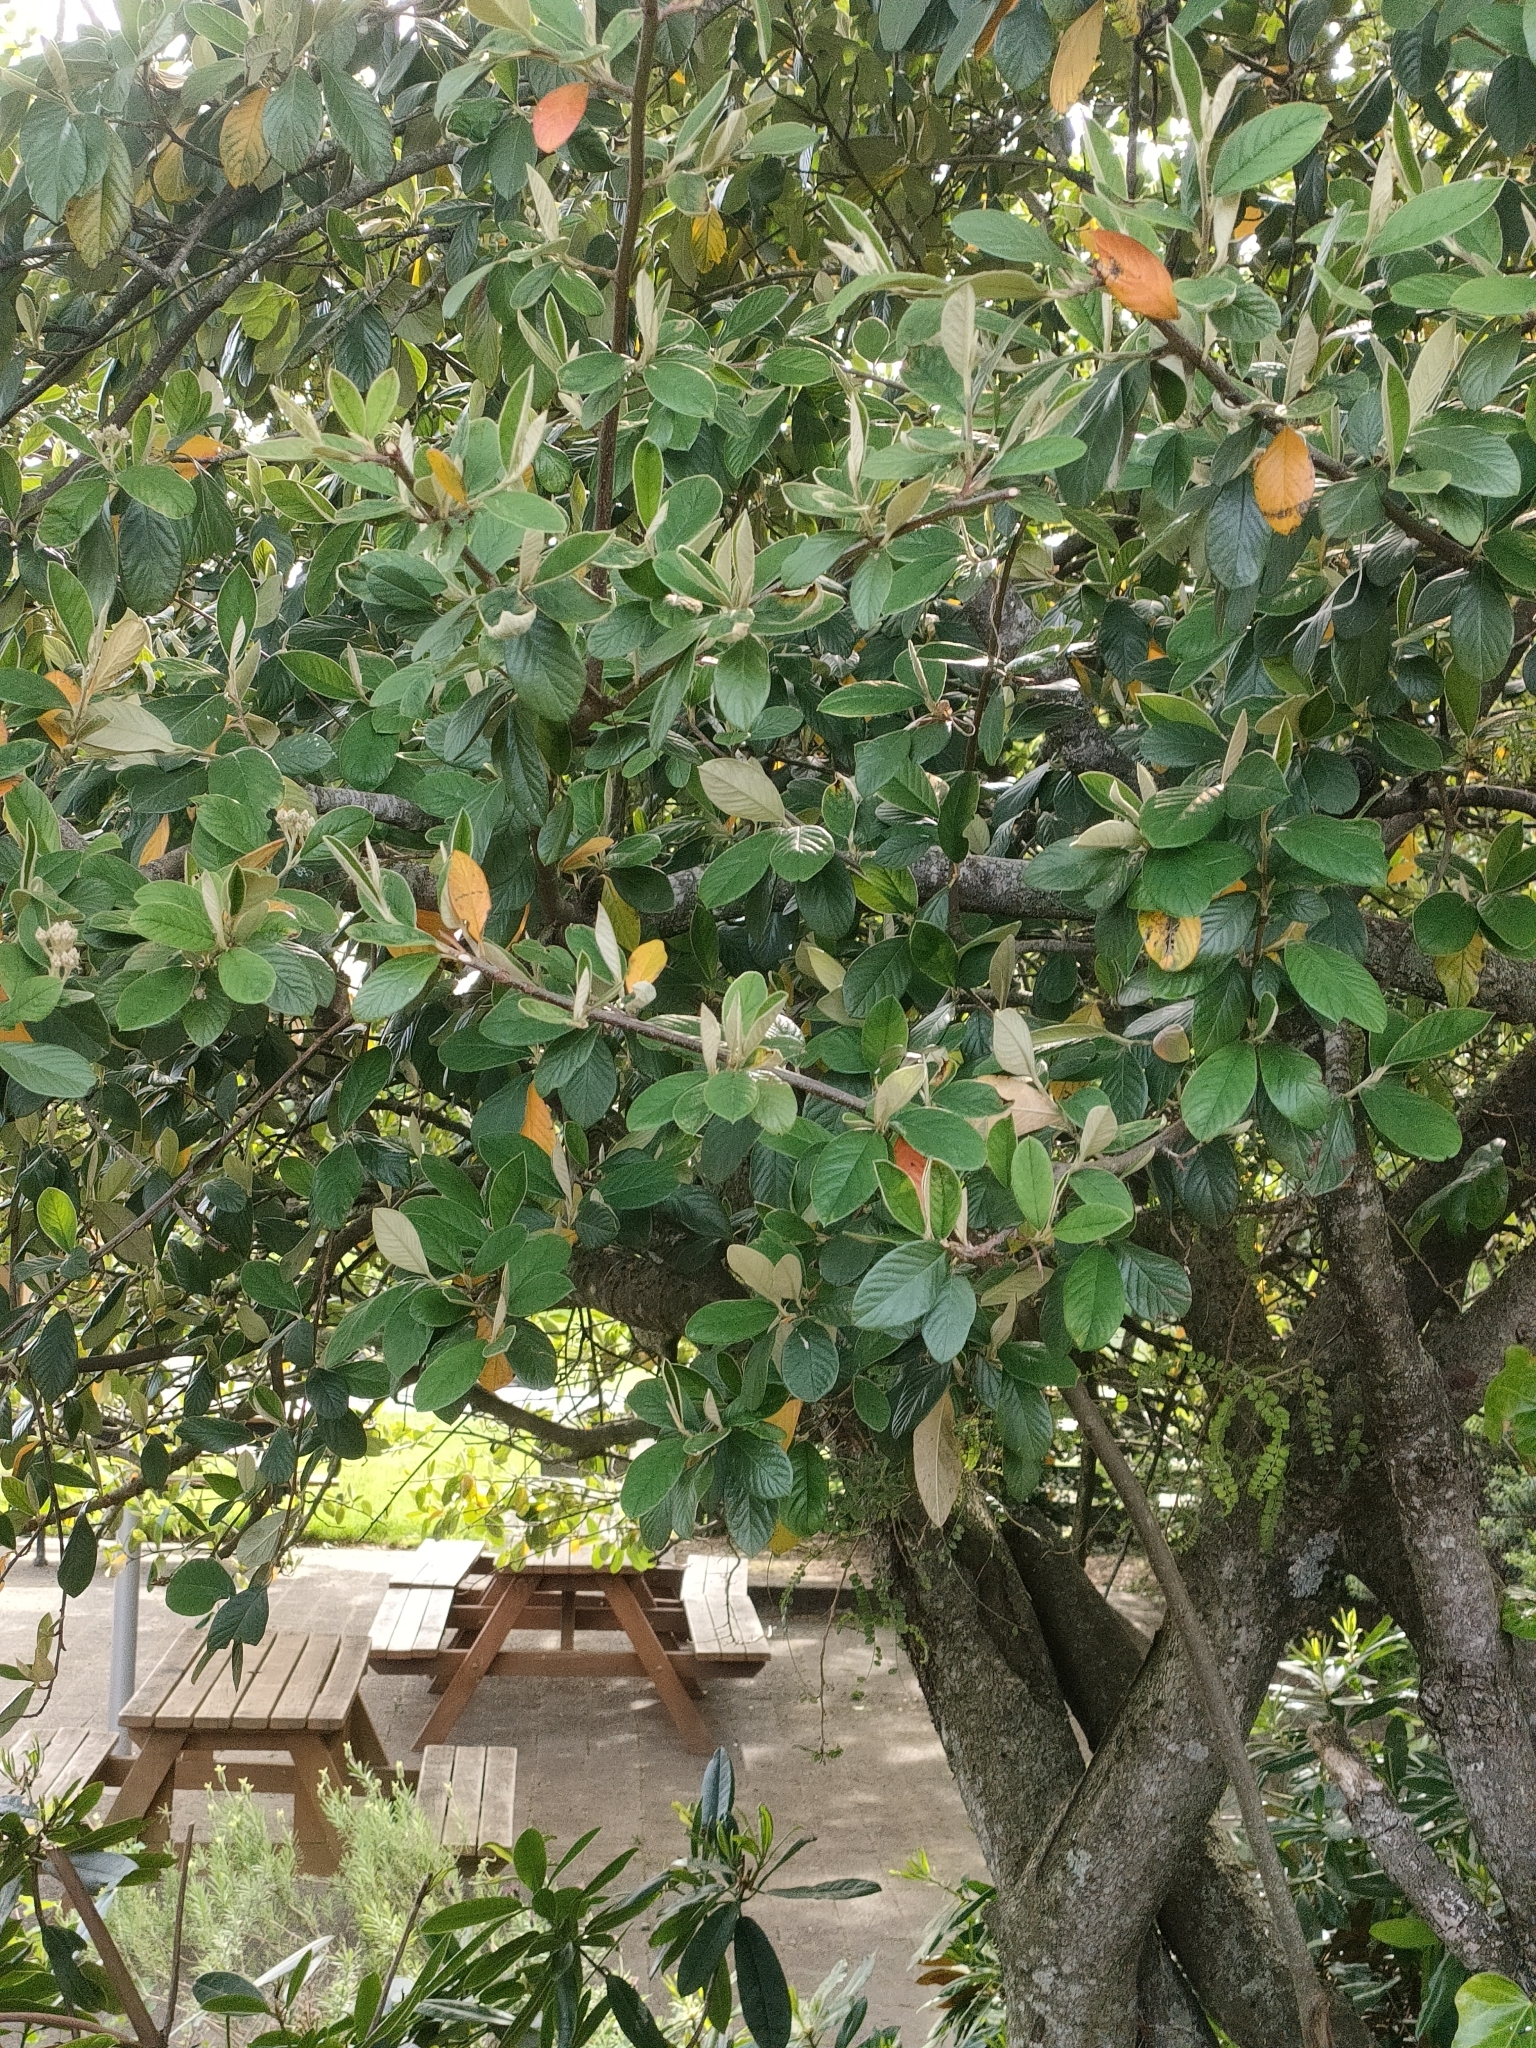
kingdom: Plantae
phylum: Tracheophyta
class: Magnoliopsida
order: Rosales
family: Rosaceae
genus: Cotoneaster
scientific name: Cotoneaster coriaceus
